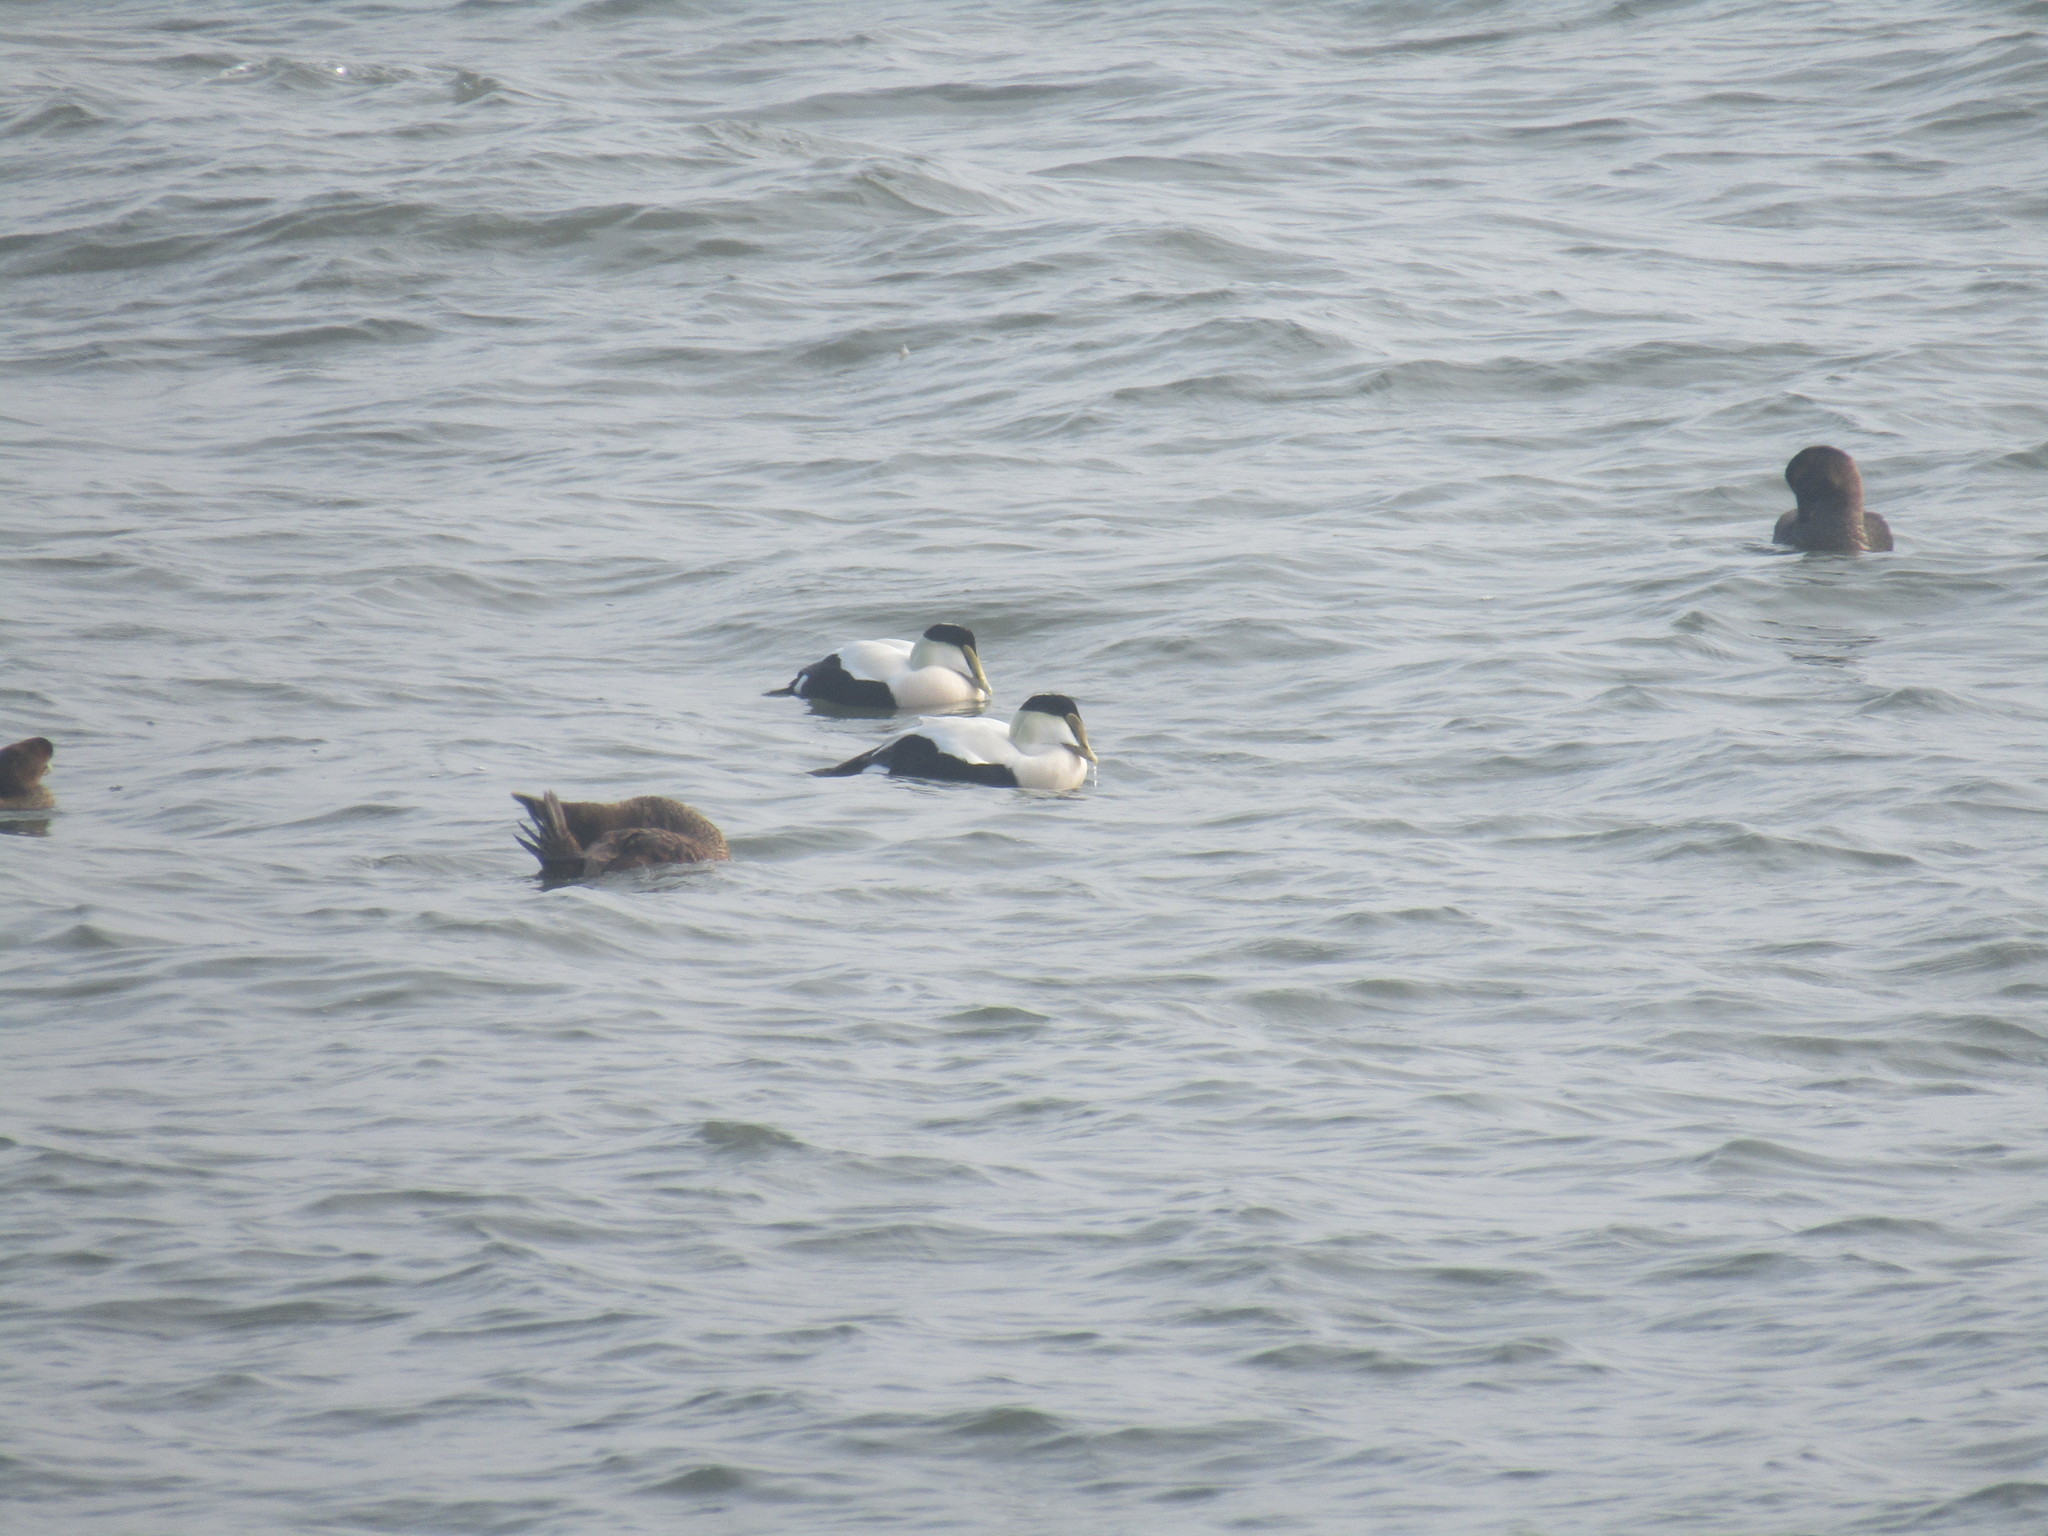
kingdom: Animalia
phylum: Chordata
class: Aves
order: Anseriformes
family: Anatidae
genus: Somateria
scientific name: Somateria mollissima
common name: Common eider
